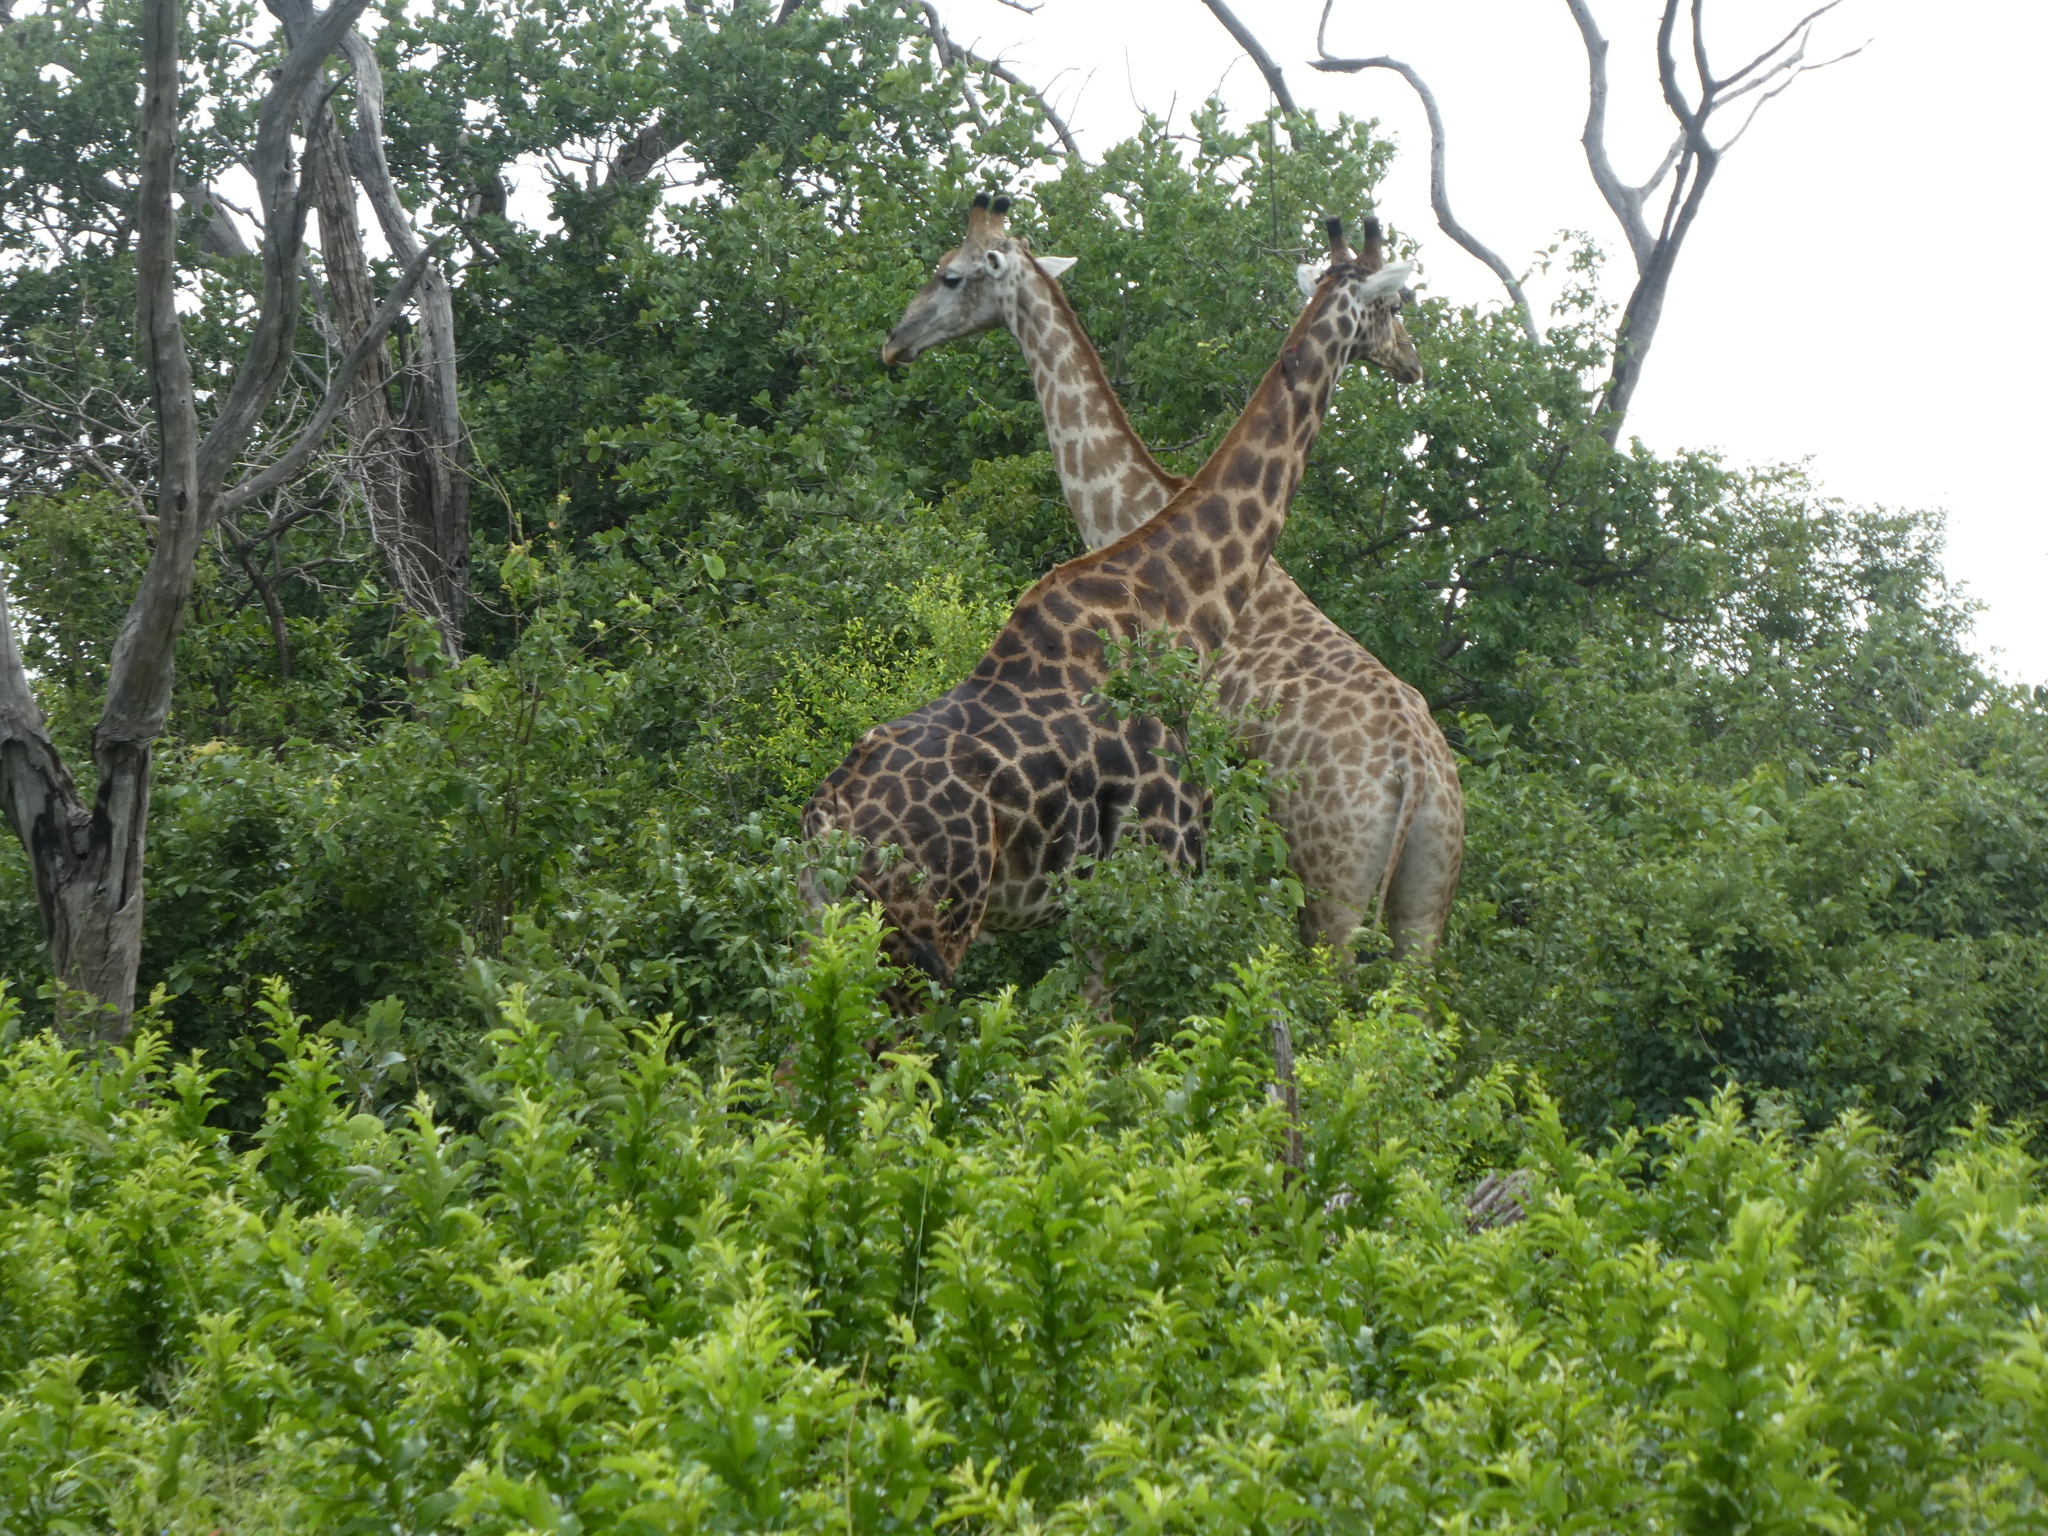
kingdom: Animalia
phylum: Chordata
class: Mammalia
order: Artiodactyla
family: Giraffidae
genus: Giraffa
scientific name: Giraffa giraffa
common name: Southern giraffe
